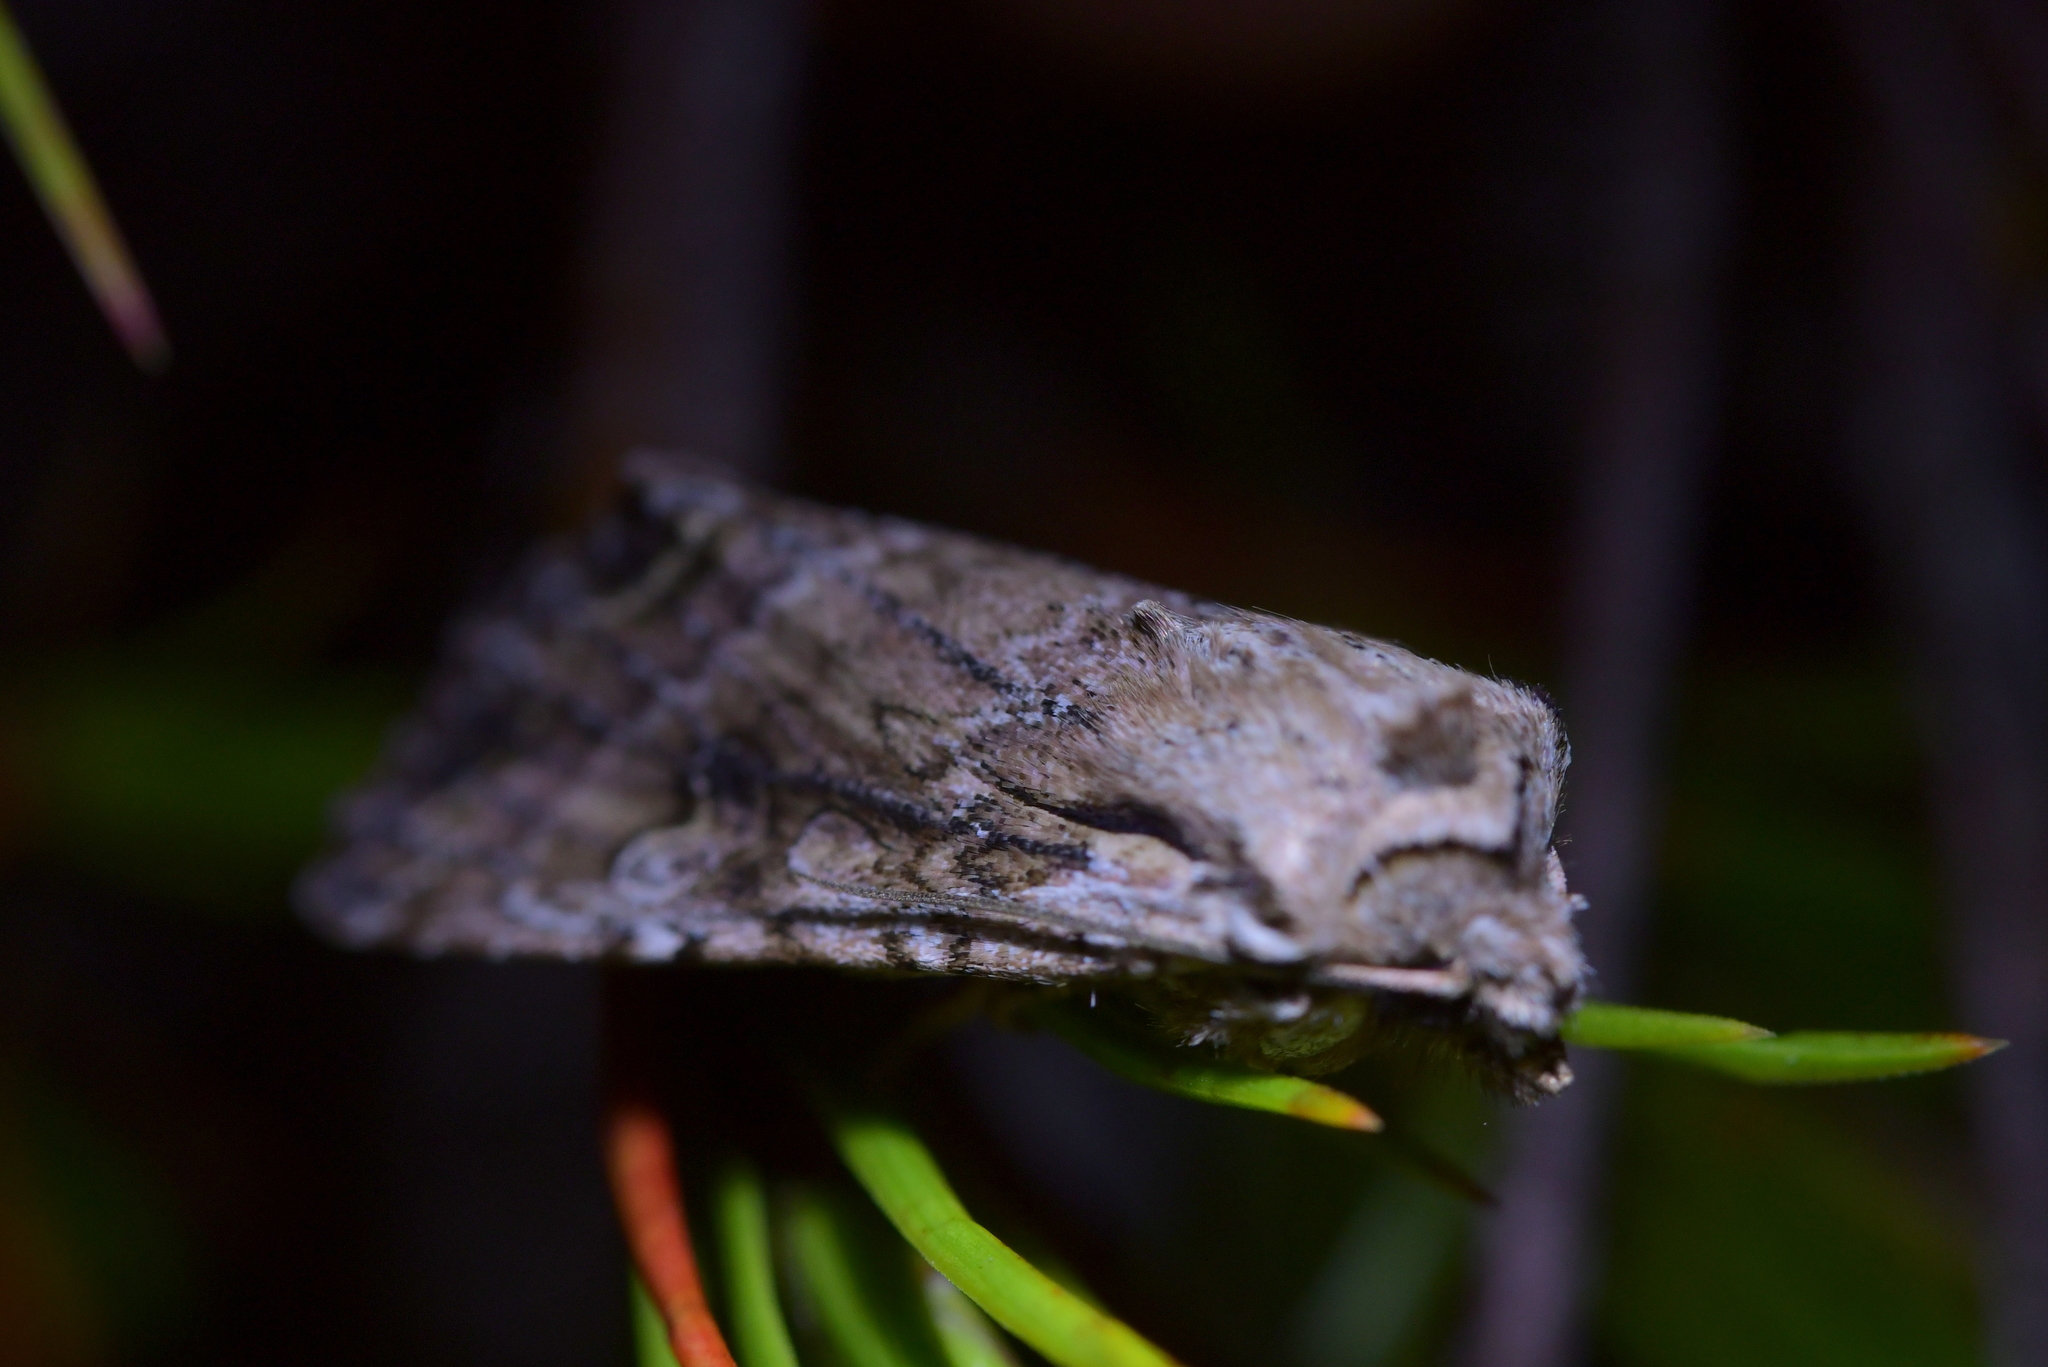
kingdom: Animalia
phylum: Arthropoda
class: Insecta
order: Lepidoptera
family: Noctuidae
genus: Ichneutica
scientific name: Ichneutica lindsayorum
